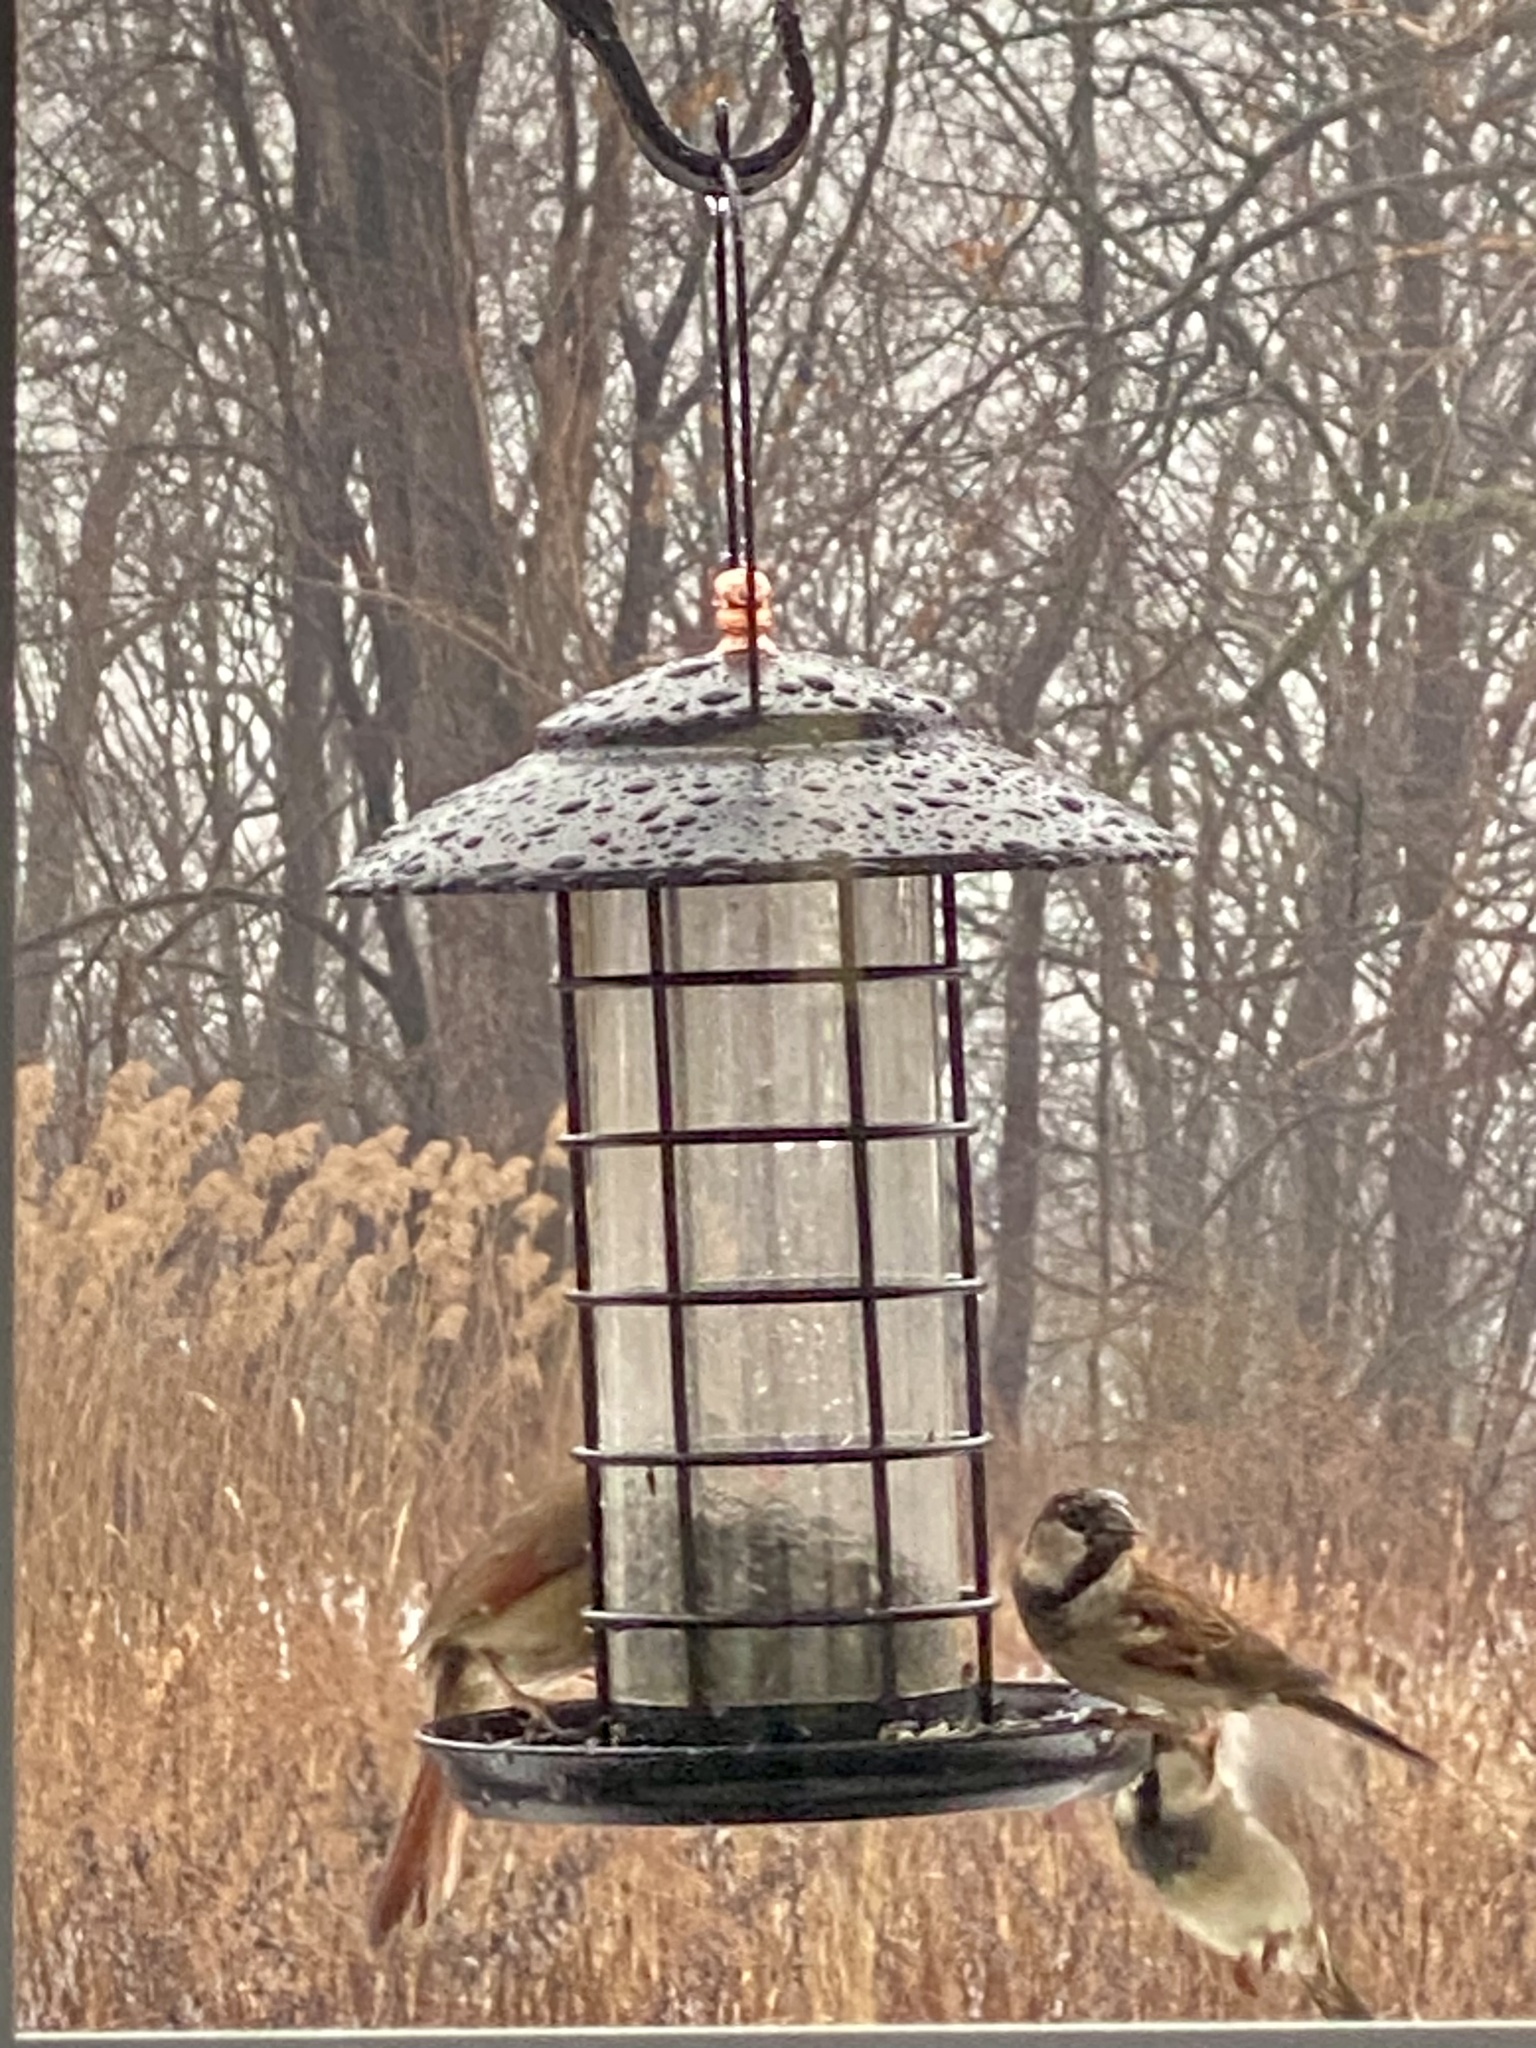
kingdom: Animalia
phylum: Chordata
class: Aves
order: Passeriformes
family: Passeridae
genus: Passer
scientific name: Passer domesticus
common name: House sparrow
